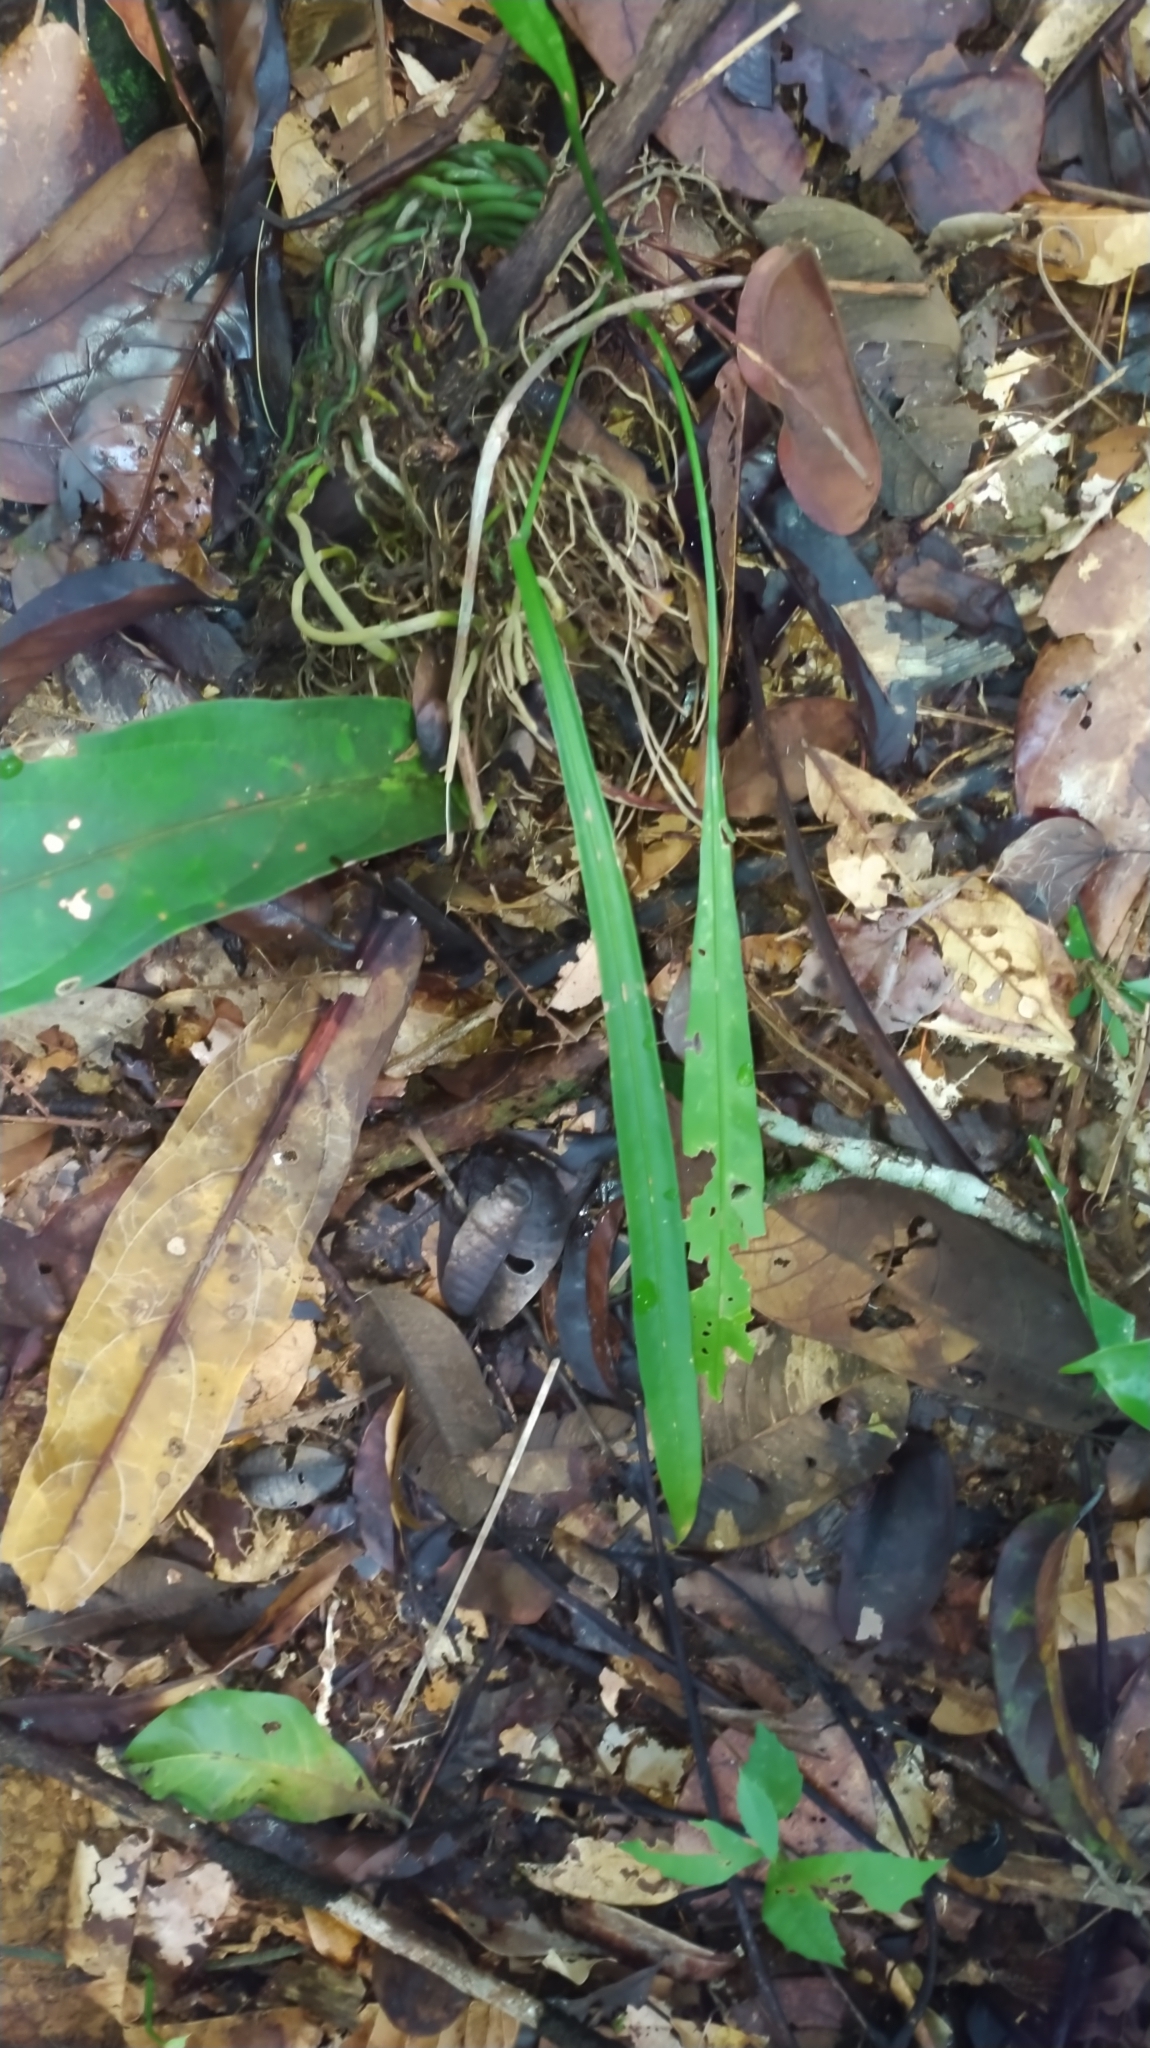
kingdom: Plantae
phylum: Tracheophyta
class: Liliopsida
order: Alismatales
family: Araceae
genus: Anthurium
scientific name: Anthurium gracile
